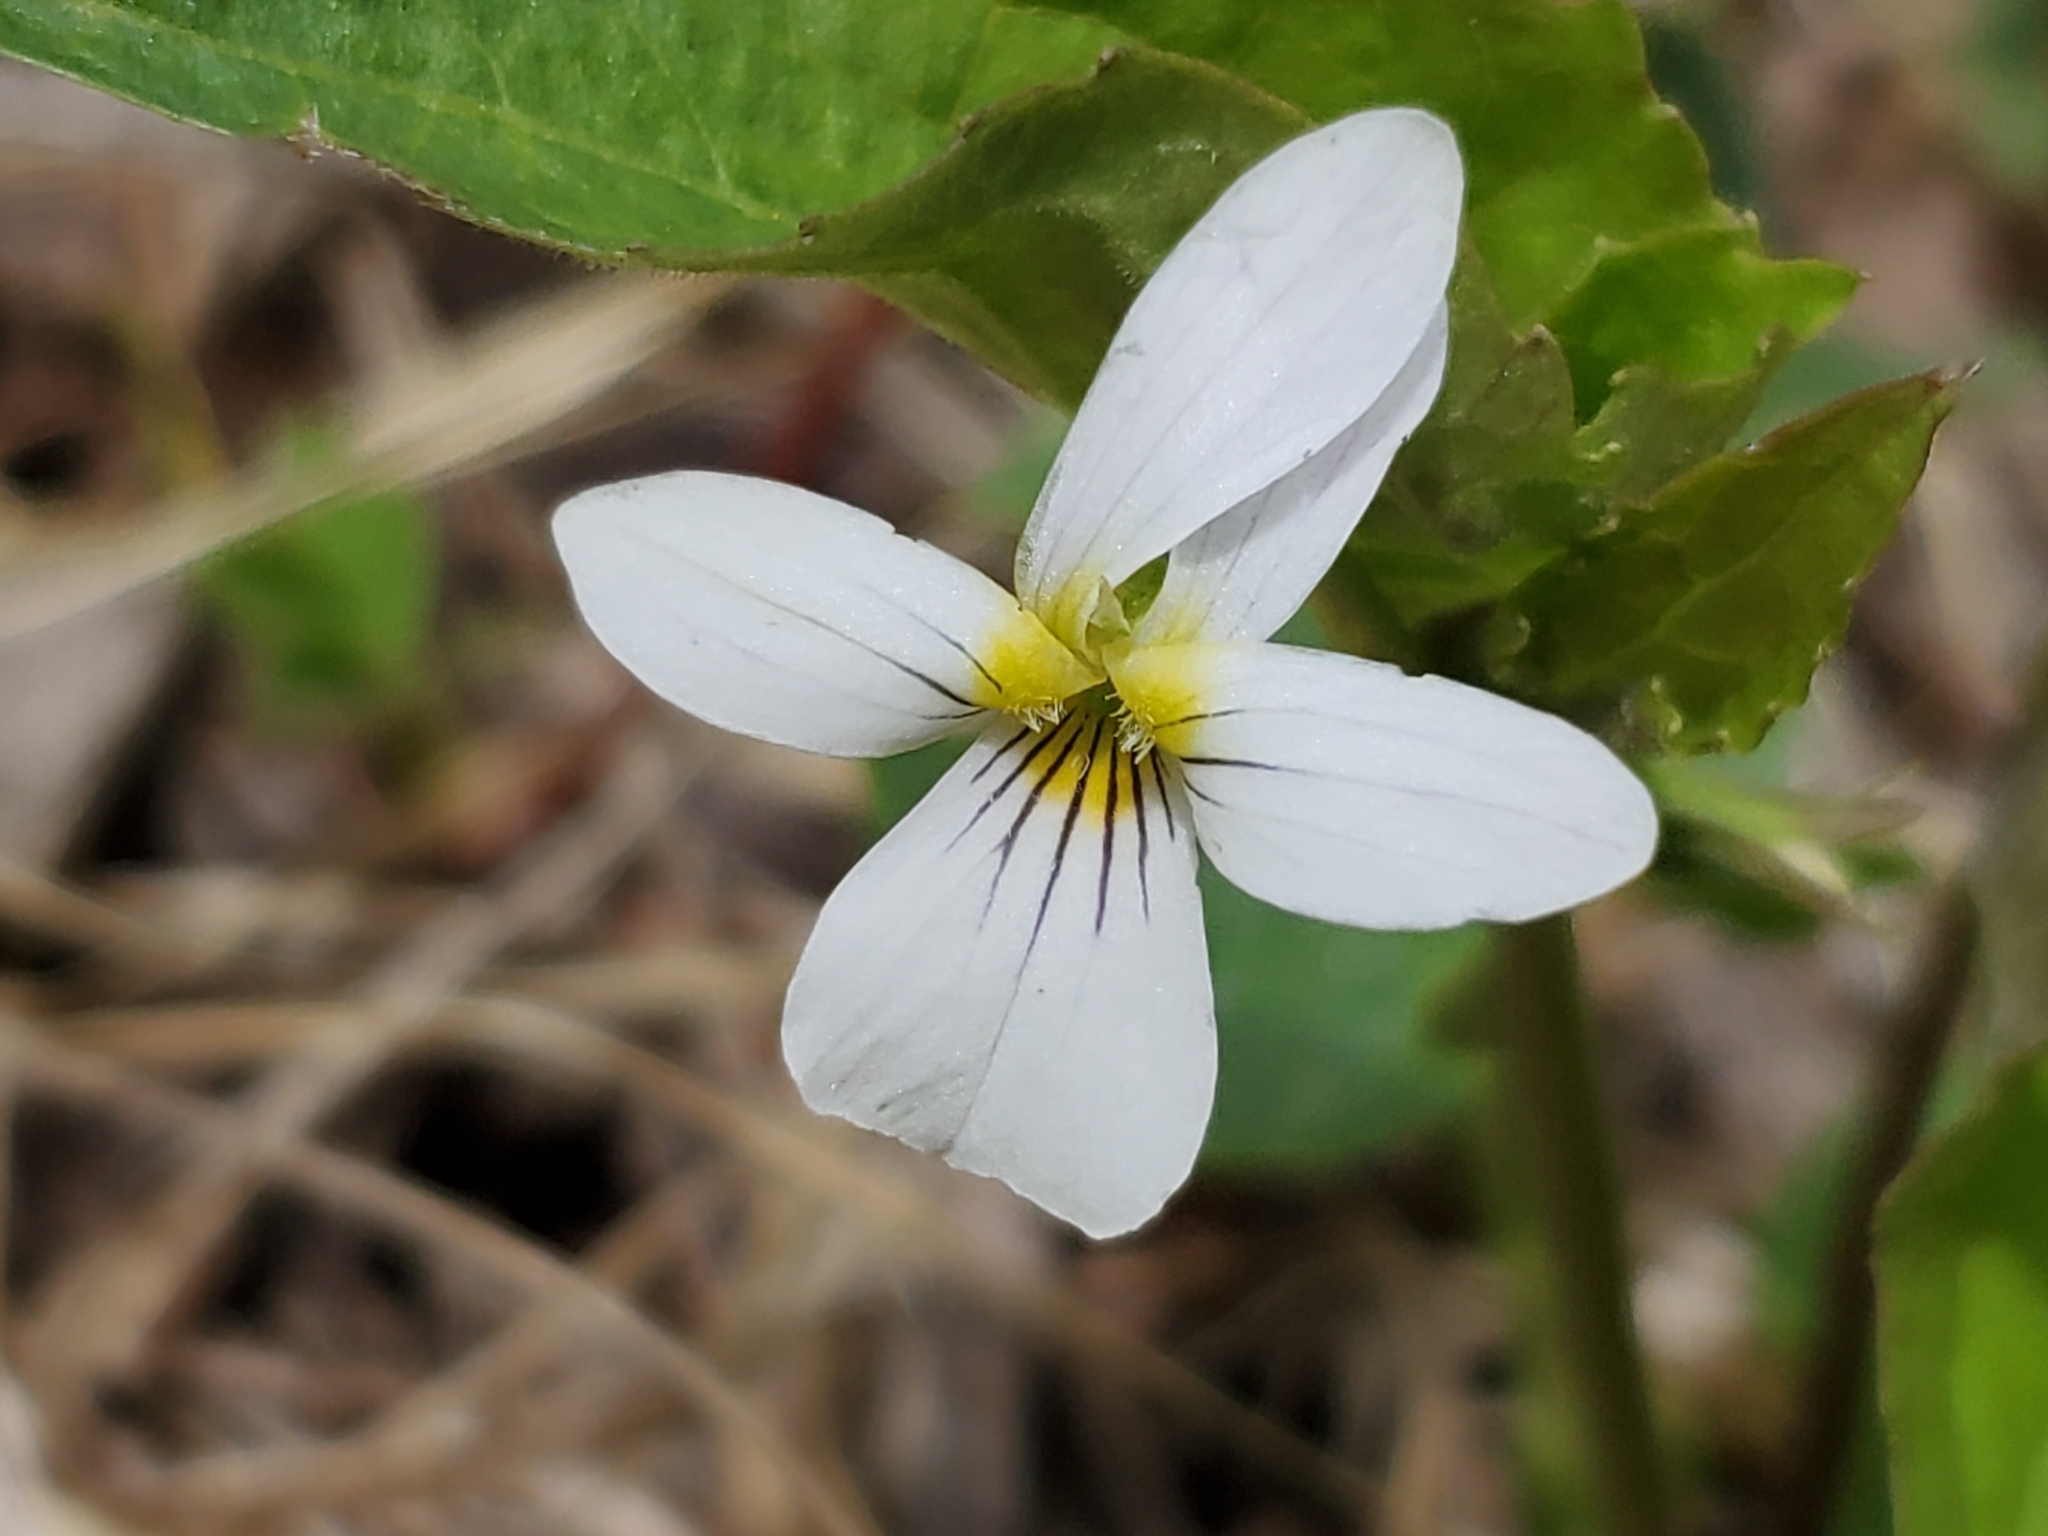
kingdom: Plantae
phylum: Tracheophyta
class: Magnoliopsida
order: Malpighiales
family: Violaceae
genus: Viola
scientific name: Viola canadensis
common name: Canada violet
